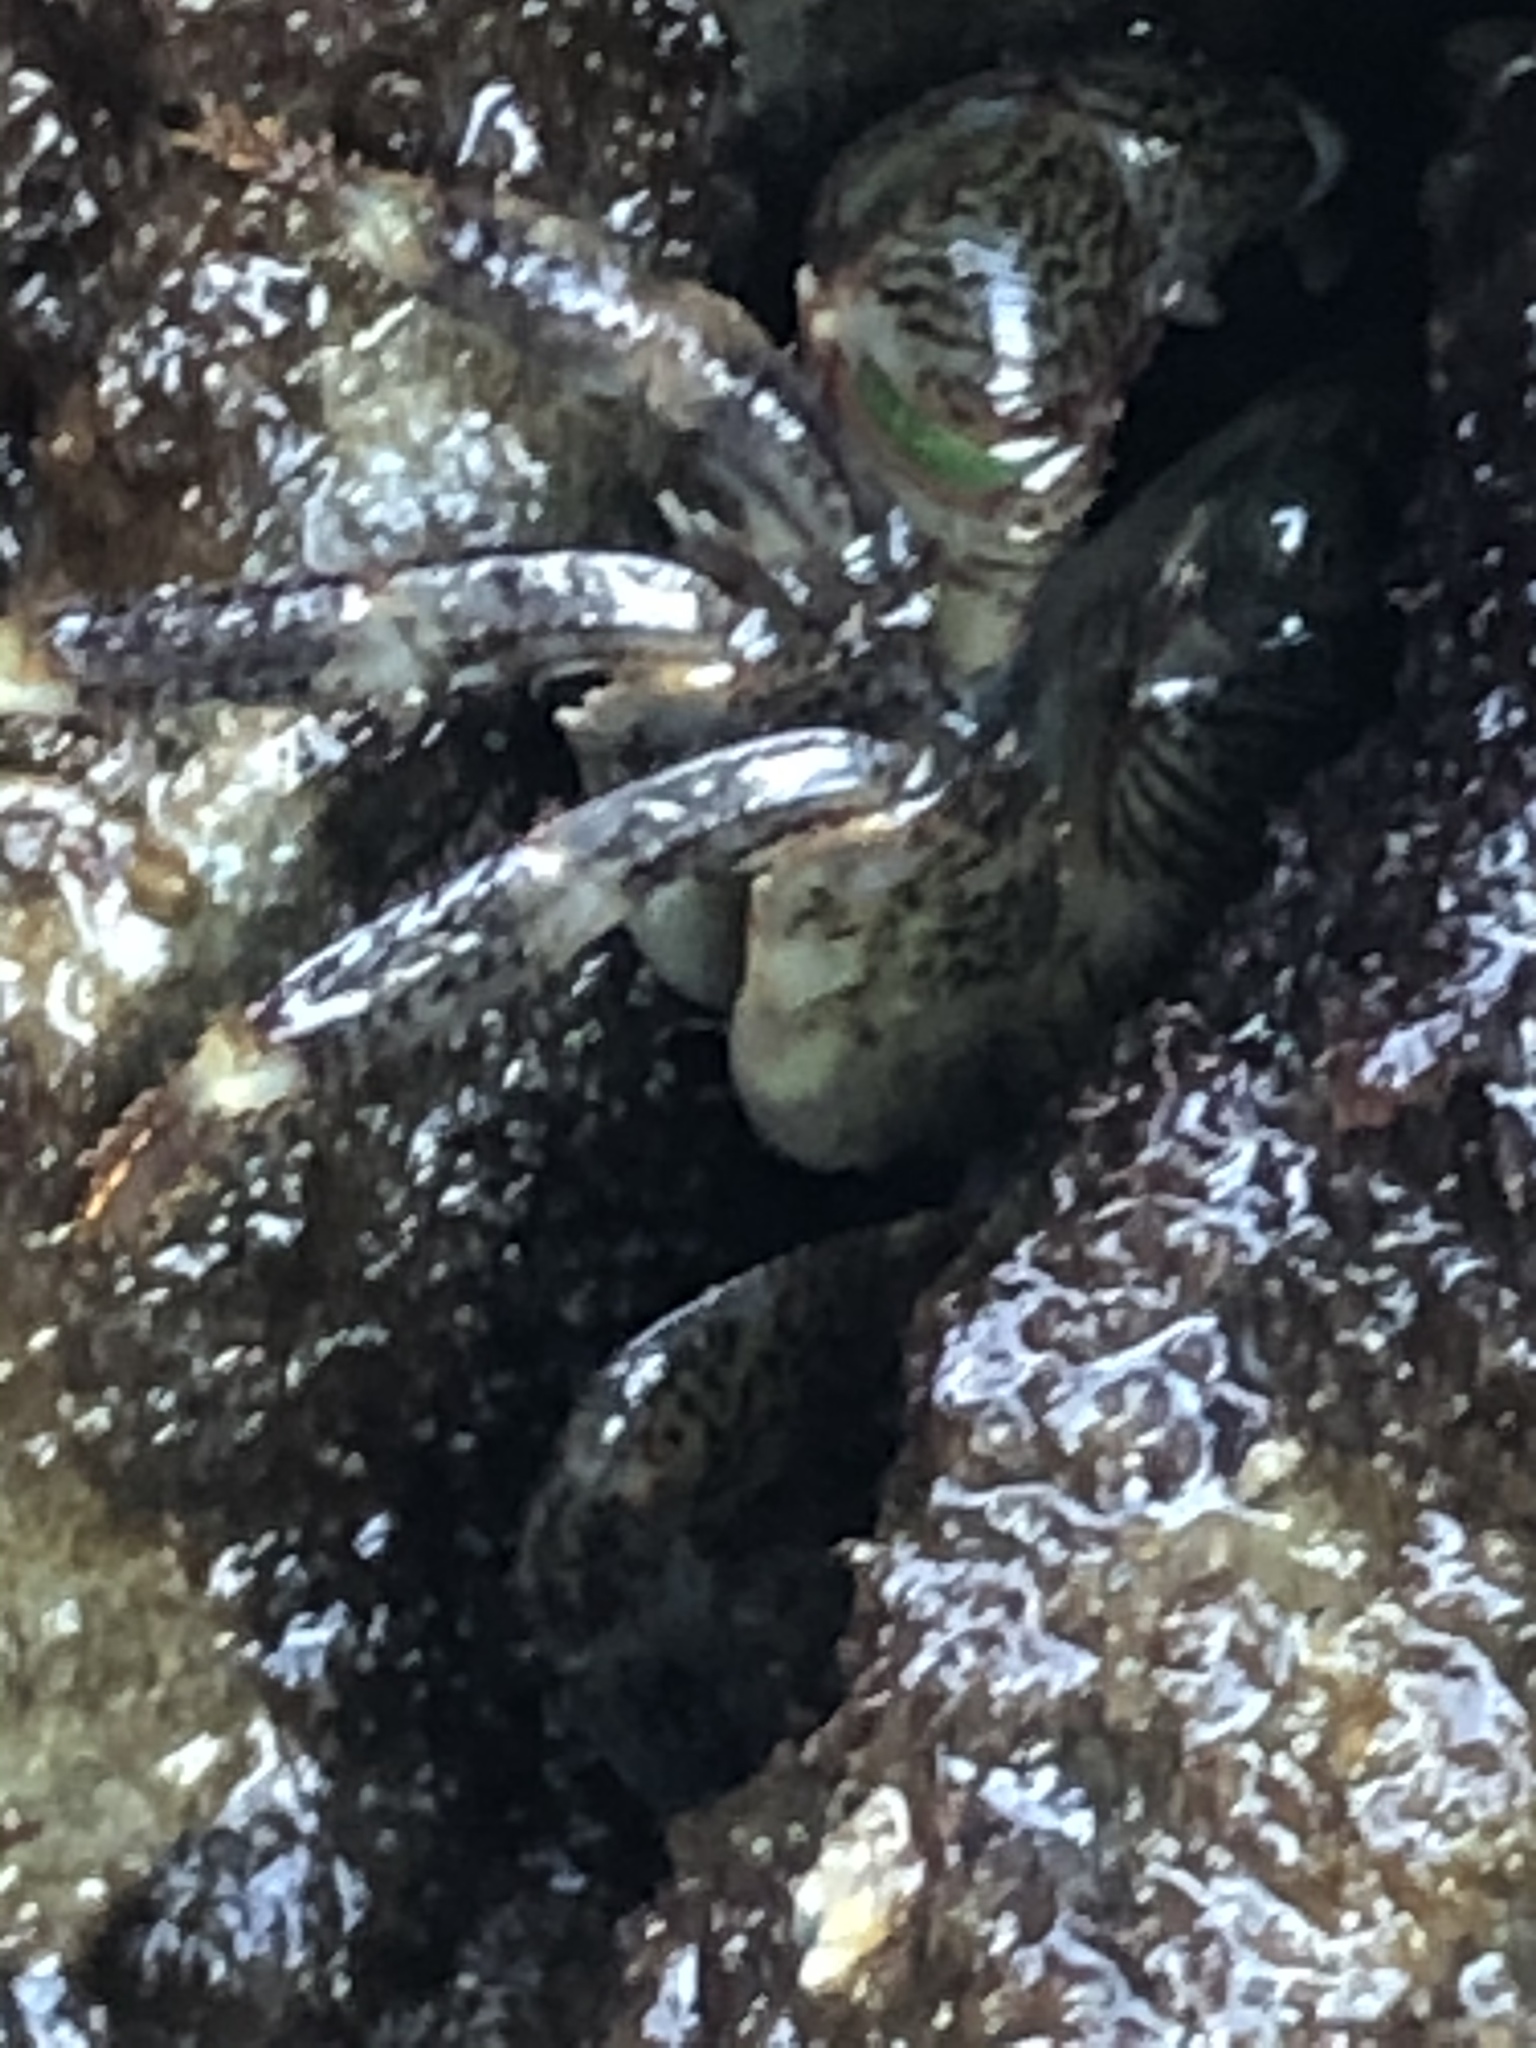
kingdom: Animalia
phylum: Arthropoda
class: Malacostraca
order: Decapoda
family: Grapsidae
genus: Pachygrapsus
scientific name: Pachygrapsus crassipes
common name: Striped shore crab
